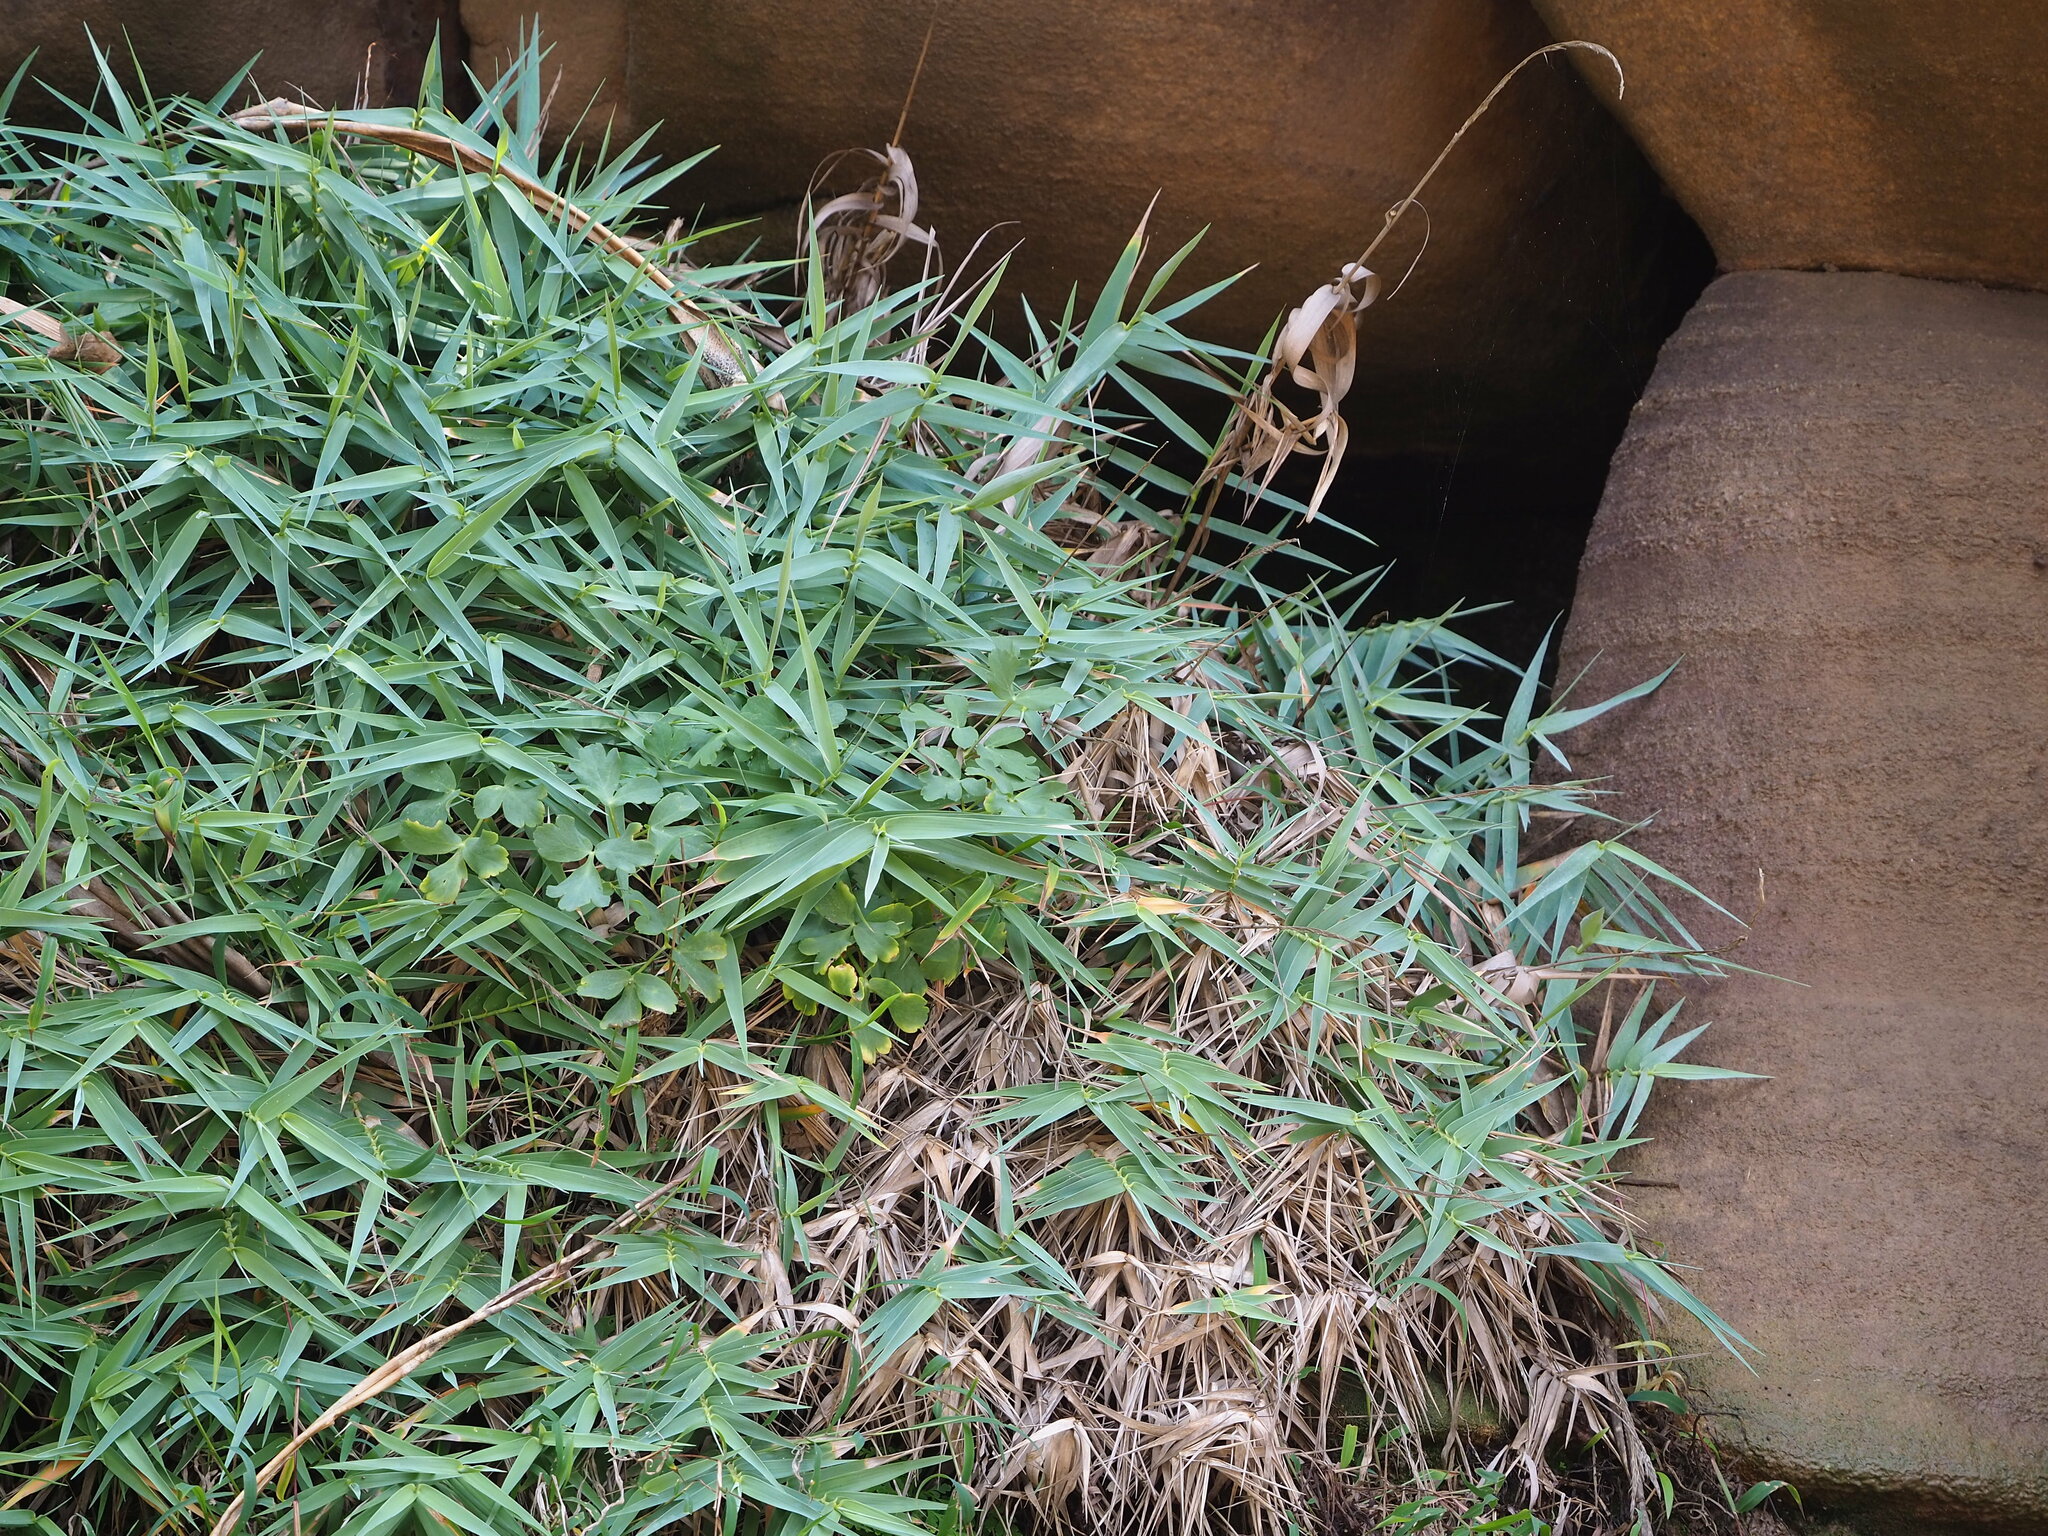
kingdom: Plantae
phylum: Tracheophyta
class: Magnoliopsida
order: Apiales
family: Apiaceae
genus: Peucedanum
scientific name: Peucedanum japonicum
